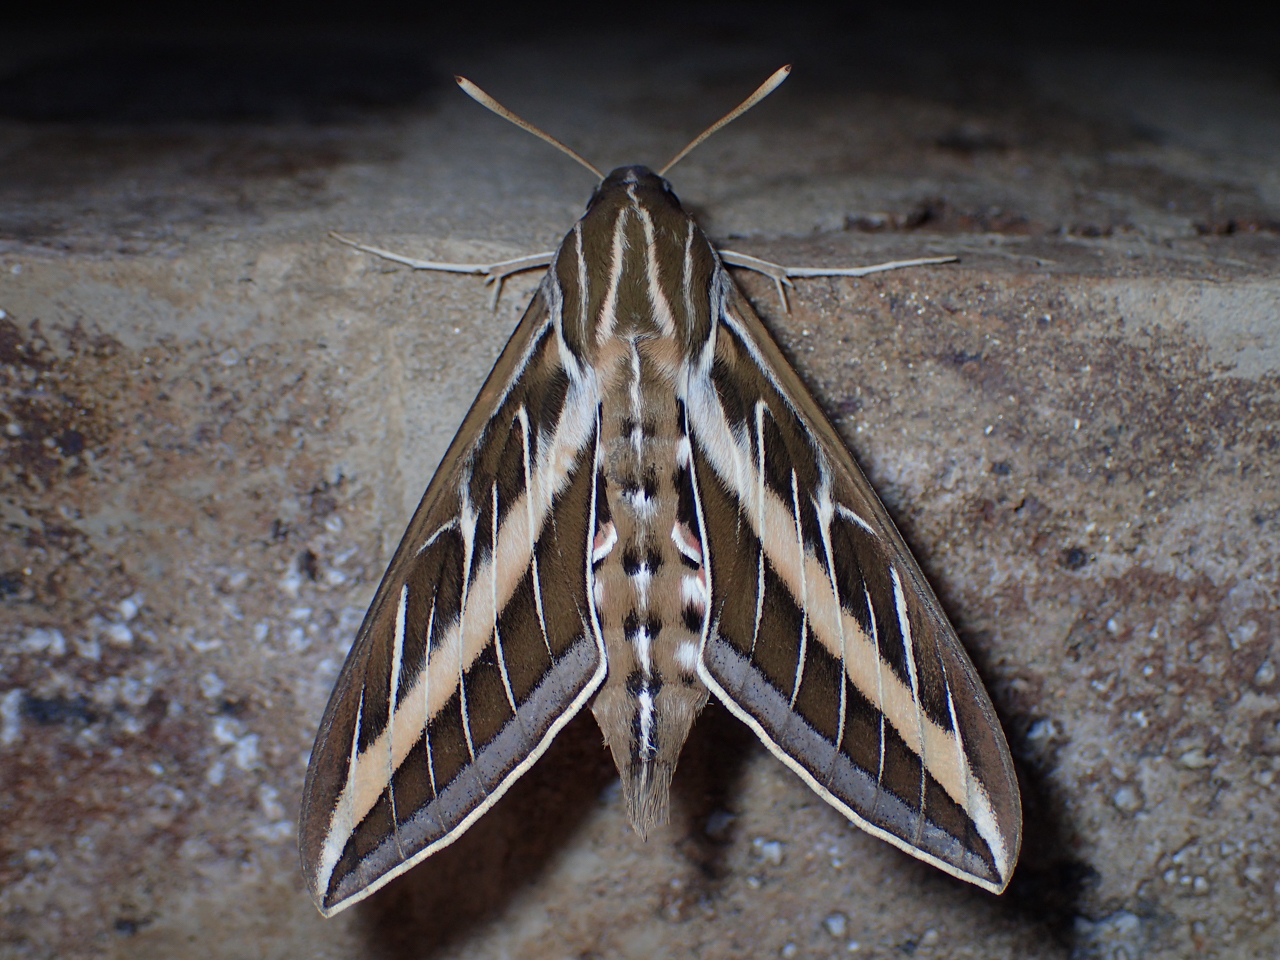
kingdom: Animalia
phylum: Arthropoda
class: Insecta
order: Lepidoptera
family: Sphingidae
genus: Hyles
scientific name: Hyles lineata
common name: White-lined sphinx
